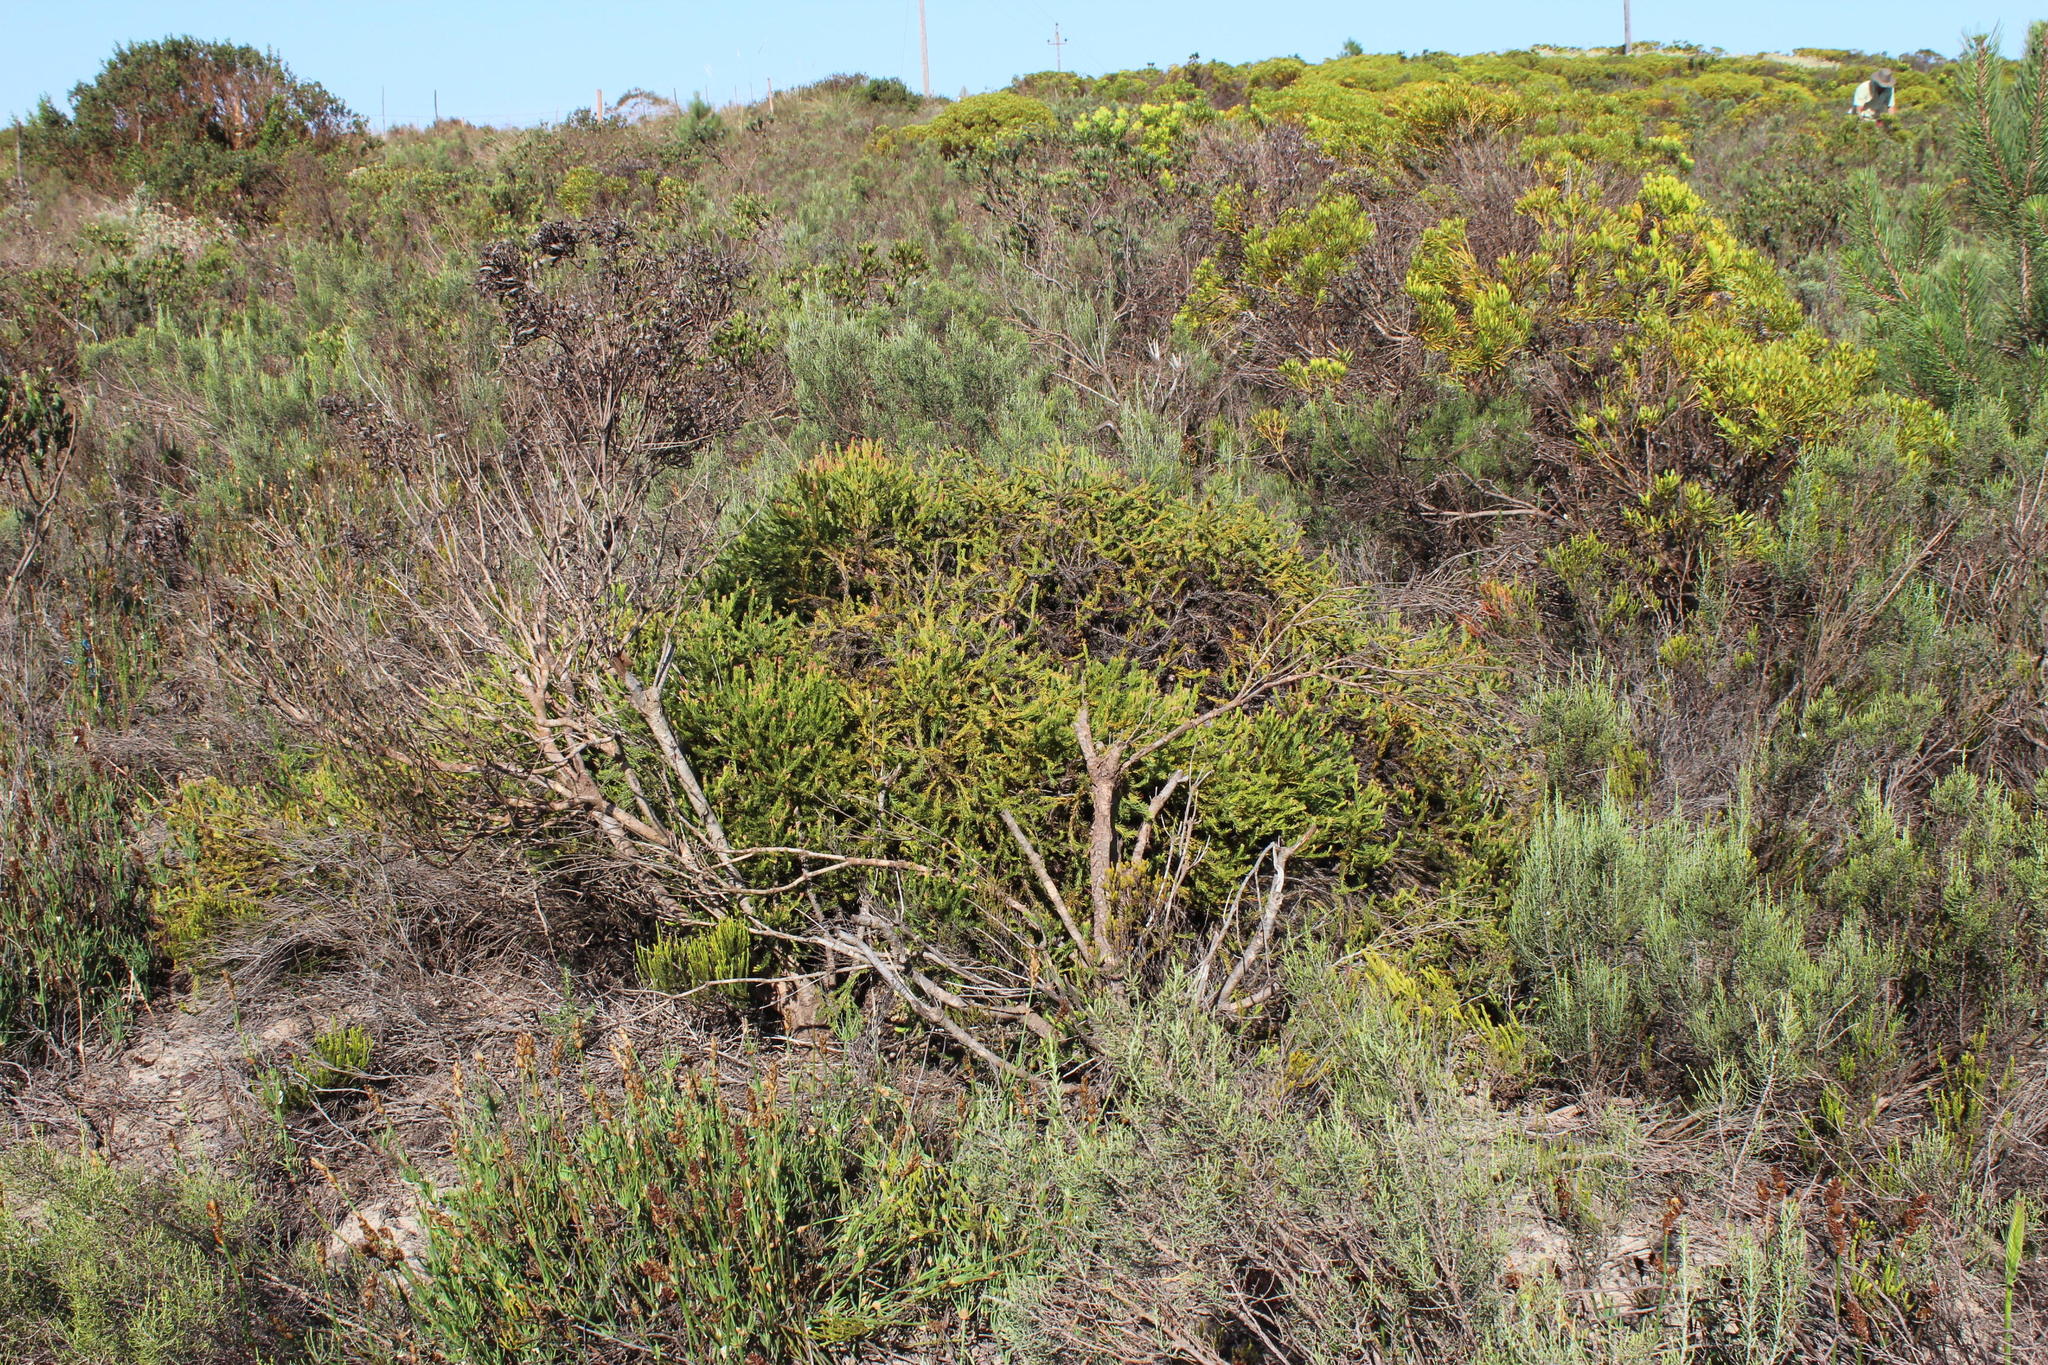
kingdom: Plantae
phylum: Tracheophyta
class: Magnoliopsida
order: Proteales
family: Proteaceae
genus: Protea
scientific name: Protea subulifolia
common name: Awl-leaf sugarbush
